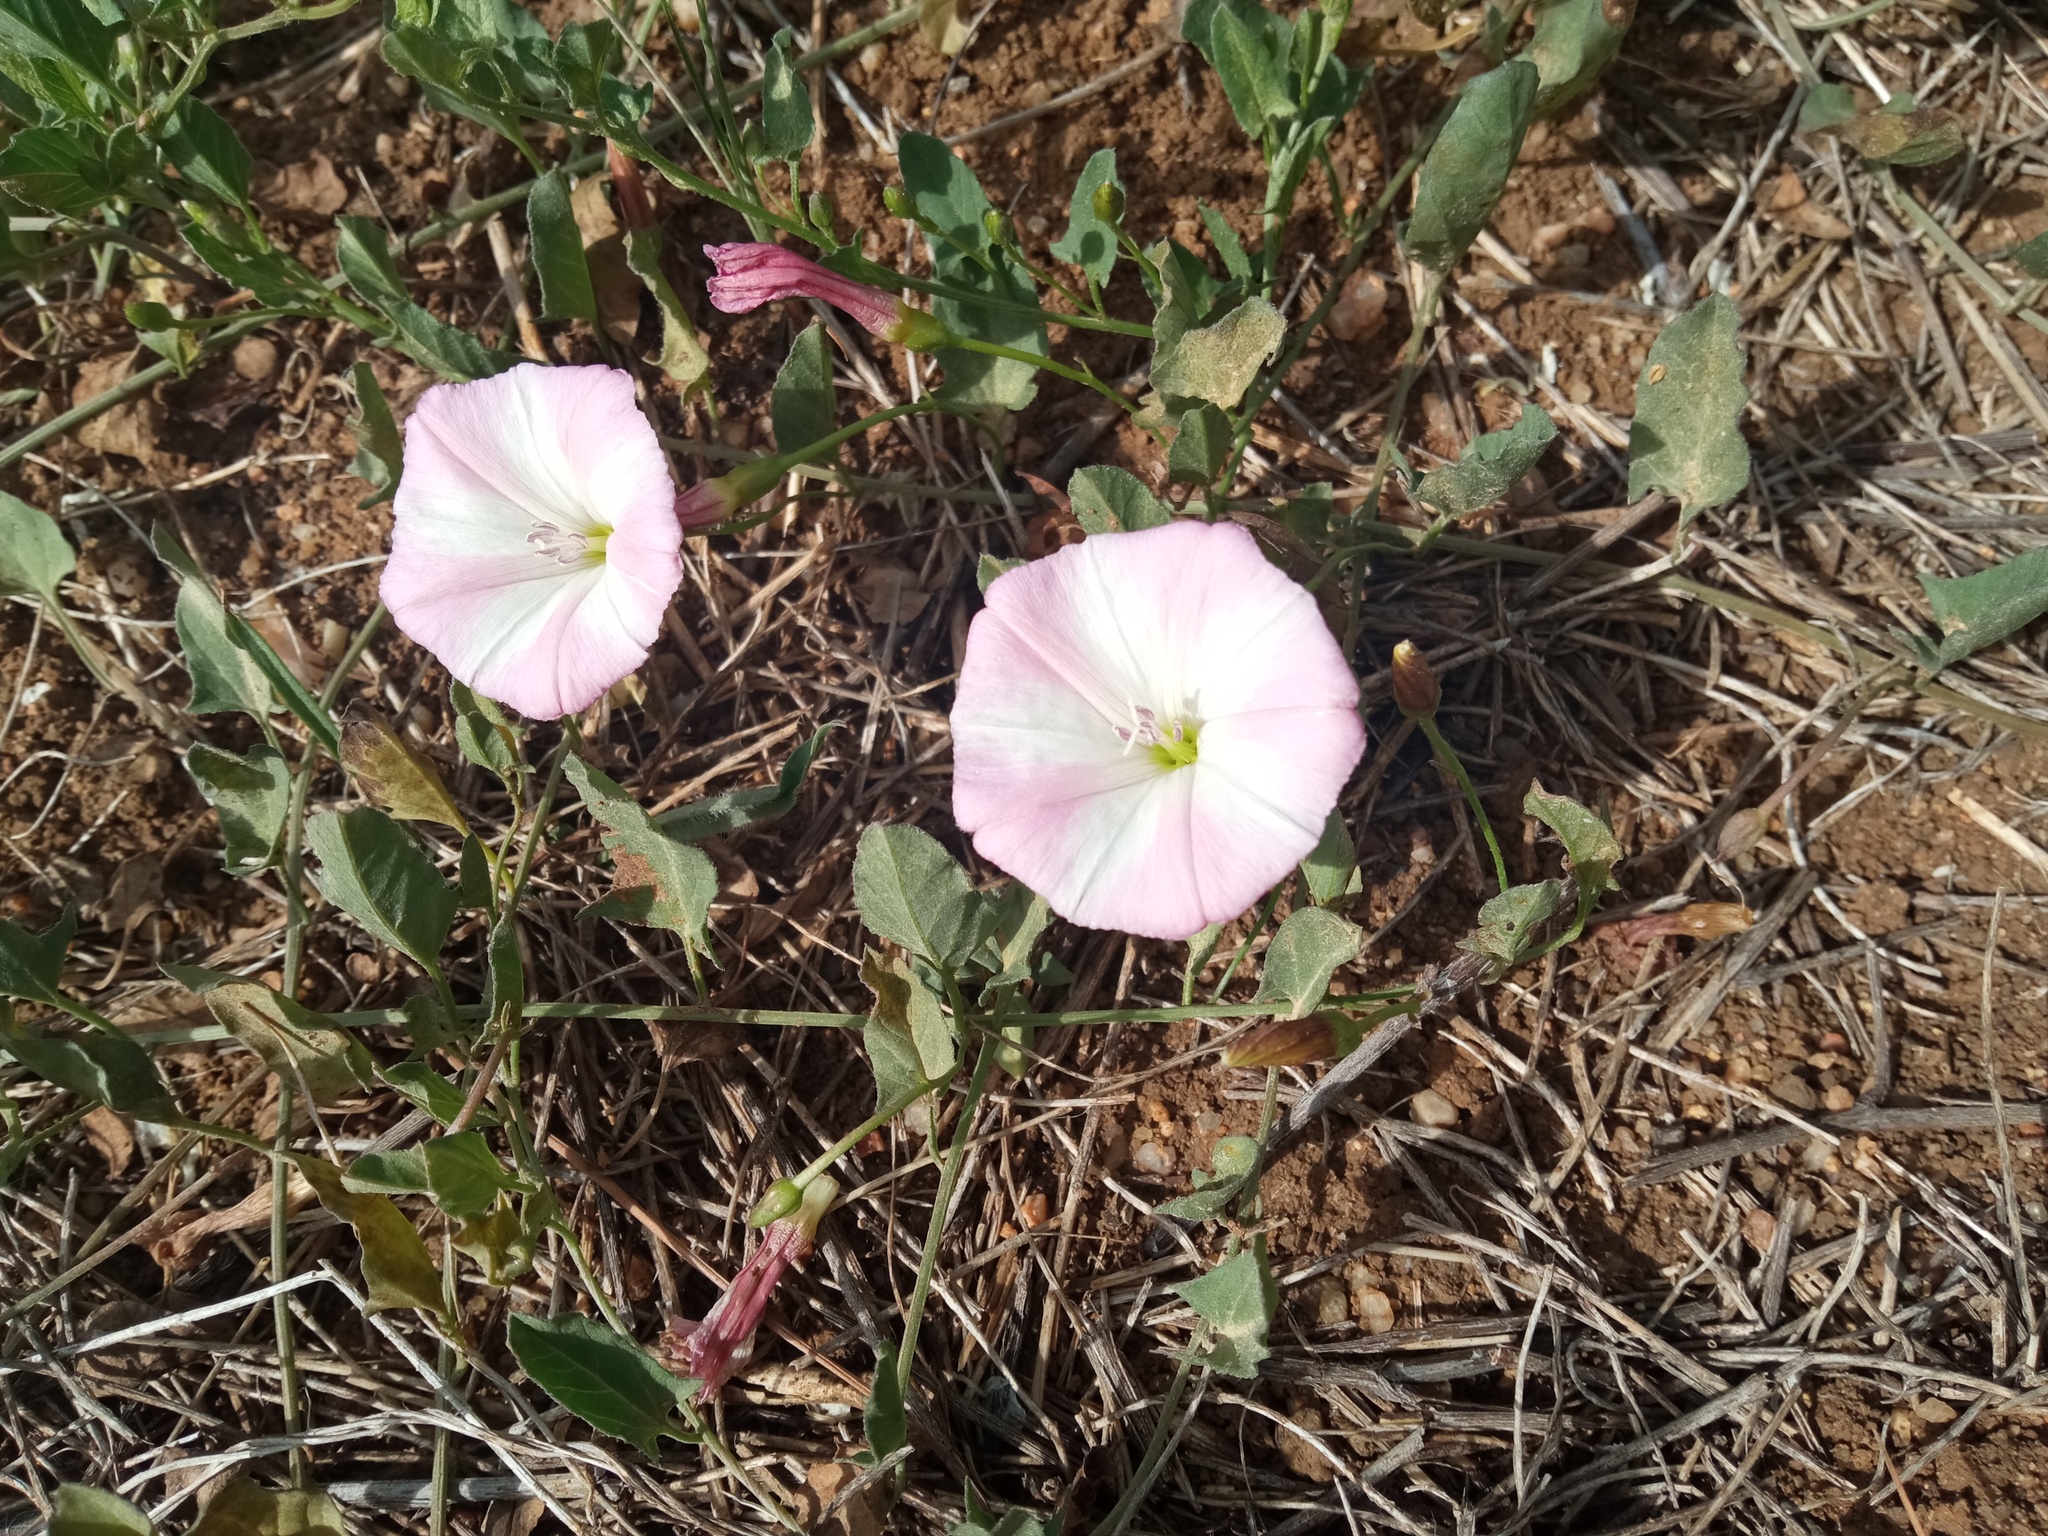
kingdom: Plantae
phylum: Tracheophyta
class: Magnoliopsida
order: Solanales
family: Convolvulaceae
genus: Convolvulus
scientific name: Convolvulus arvensis
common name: Field bindweed
